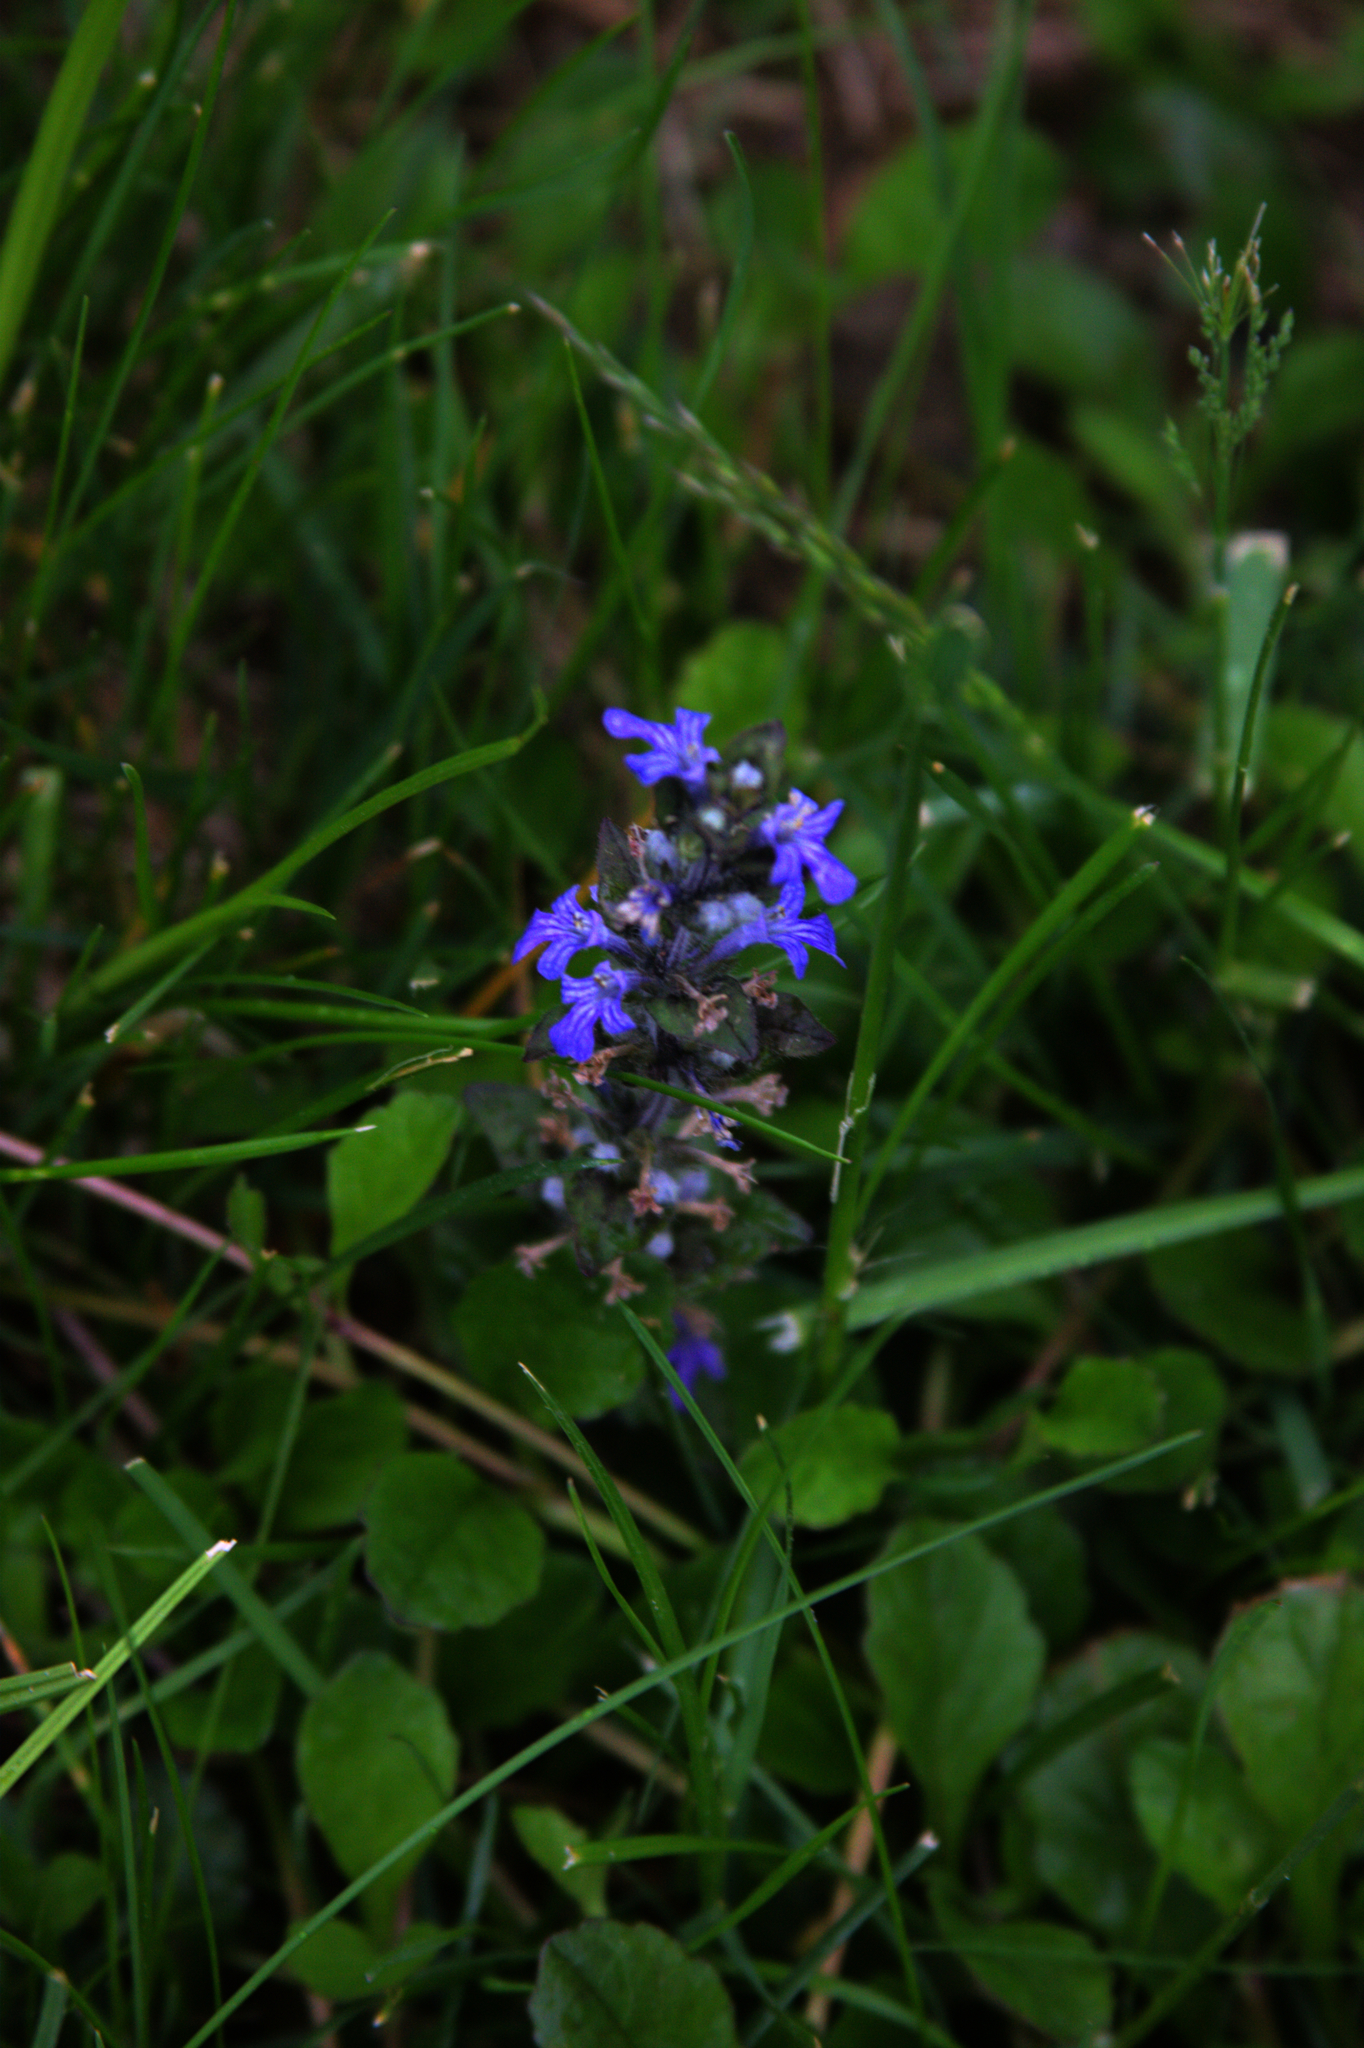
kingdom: Plantae
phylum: Tracheophyta
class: Magnoliopsida
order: Lamiales
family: Lamiaceae
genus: Ajuga
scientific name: Ajuga reptans
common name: Bugle
